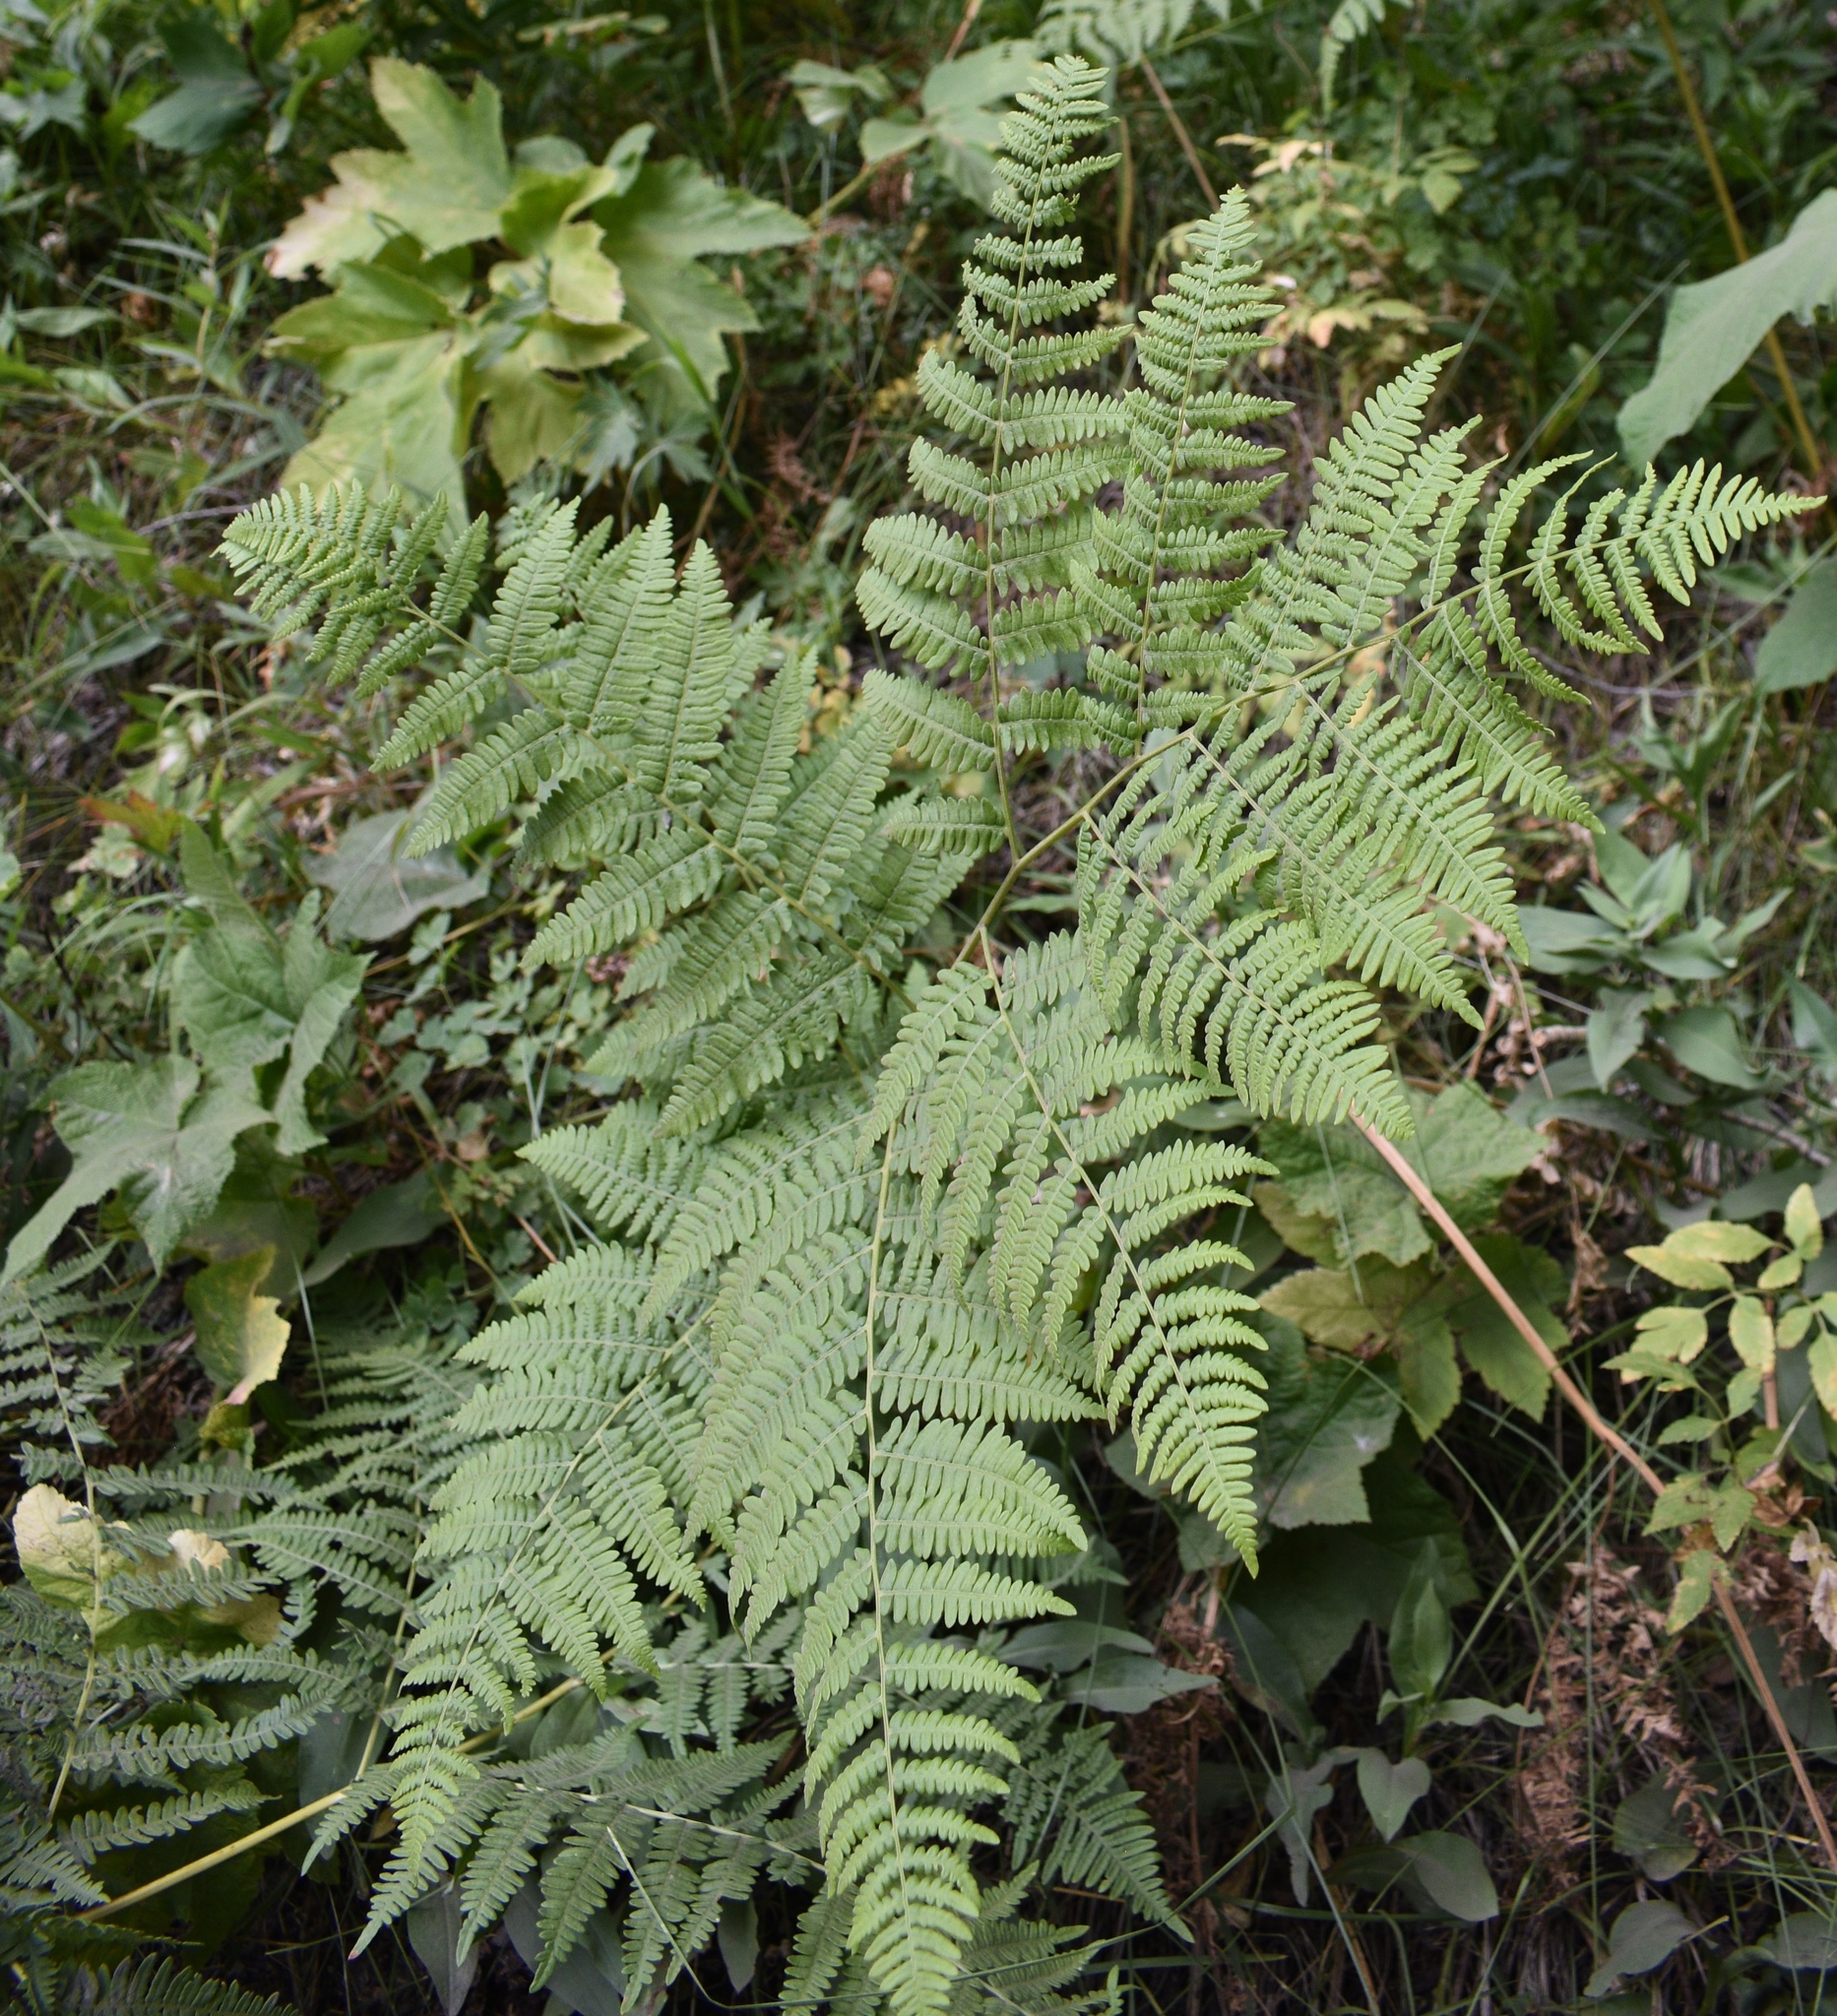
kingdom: Plantae
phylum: Tracheophyta
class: Polypodiopsida
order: Polypodiales
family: Dennstaedtiaceae
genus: Pteridium
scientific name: Pteridium aquilinum
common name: Bracken
